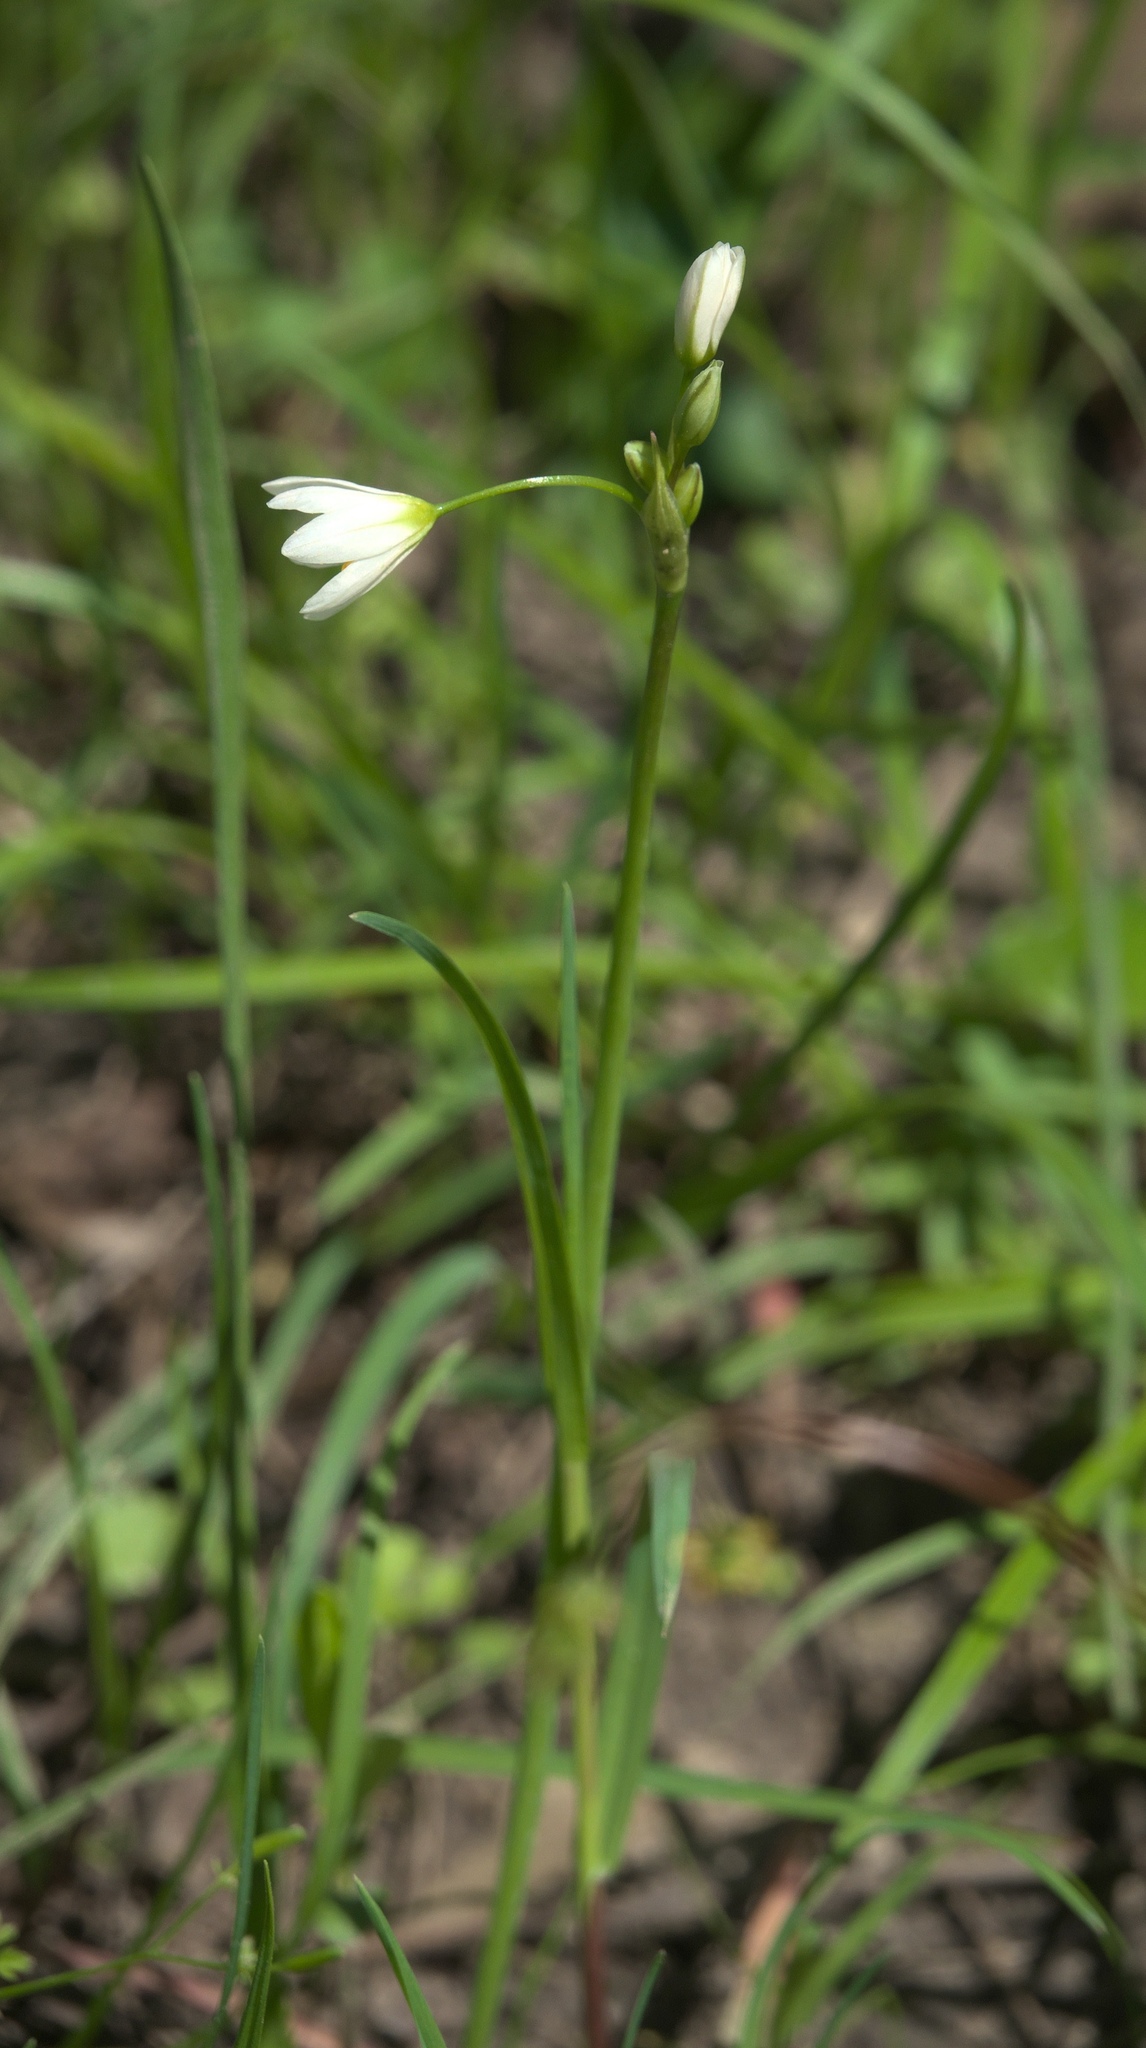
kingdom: Plantae
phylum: Tracheophyta
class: Liliopsida
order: Asparagales
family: Amaryllidaceae
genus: Nothoscordum
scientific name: Nothoscordum bivalve
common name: Crow-poison
